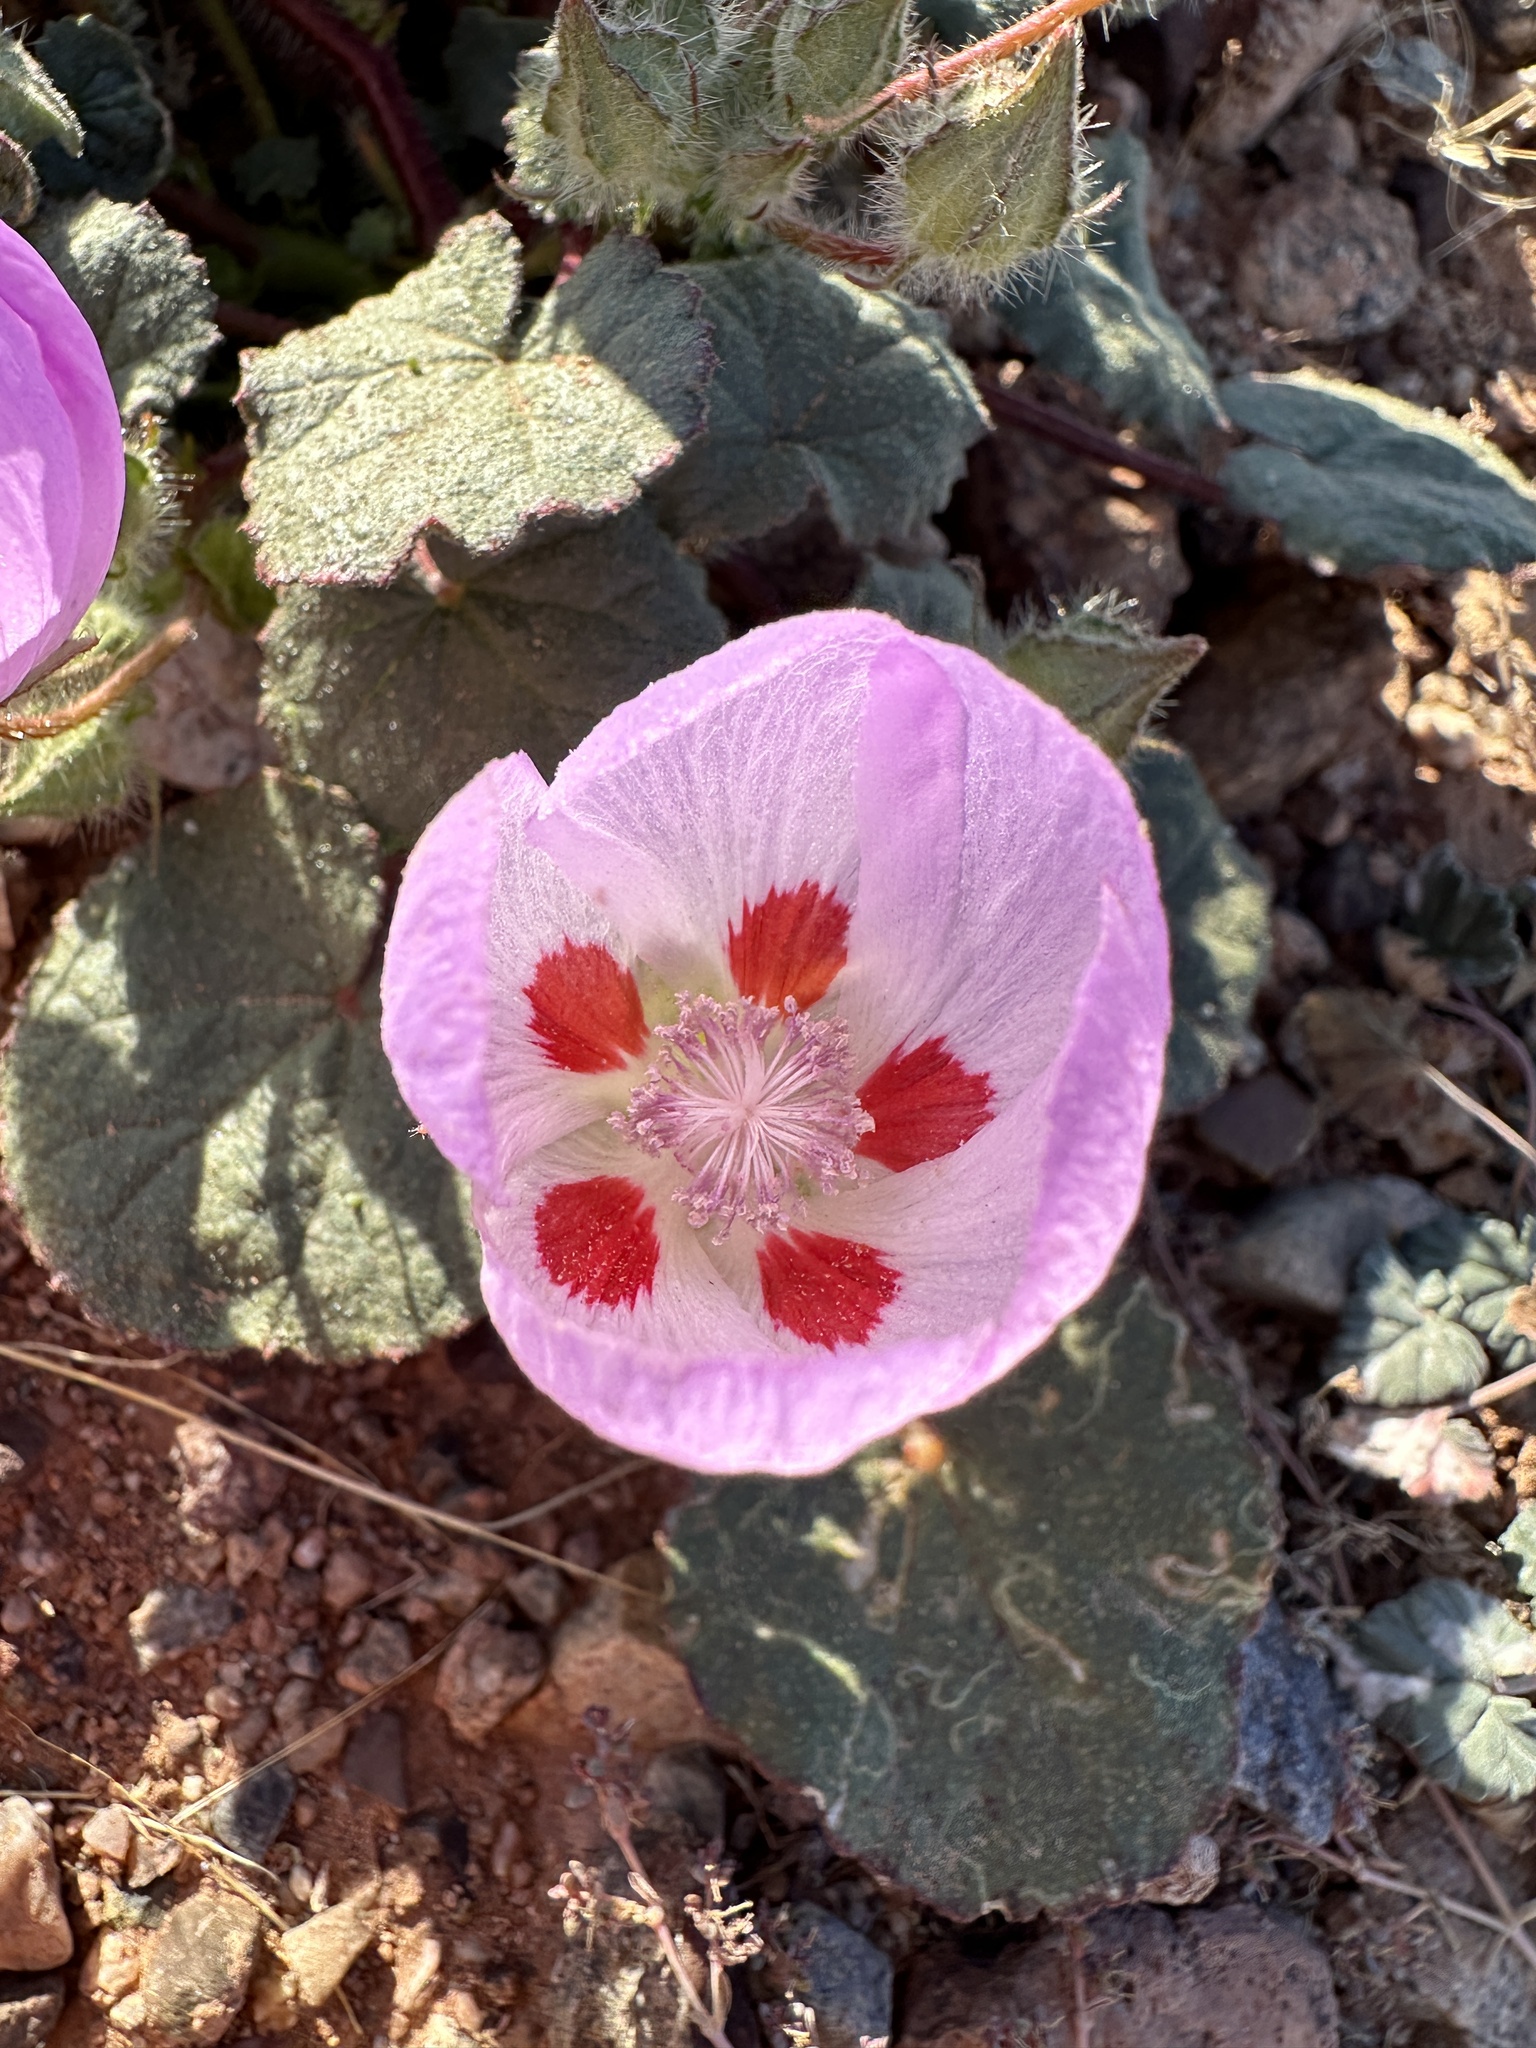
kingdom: Plantae
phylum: Tracheophyta
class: Magnoliopsida
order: Malvales
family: Malvaceae
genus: Eremalche
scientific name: Eremalche rotundifolia
